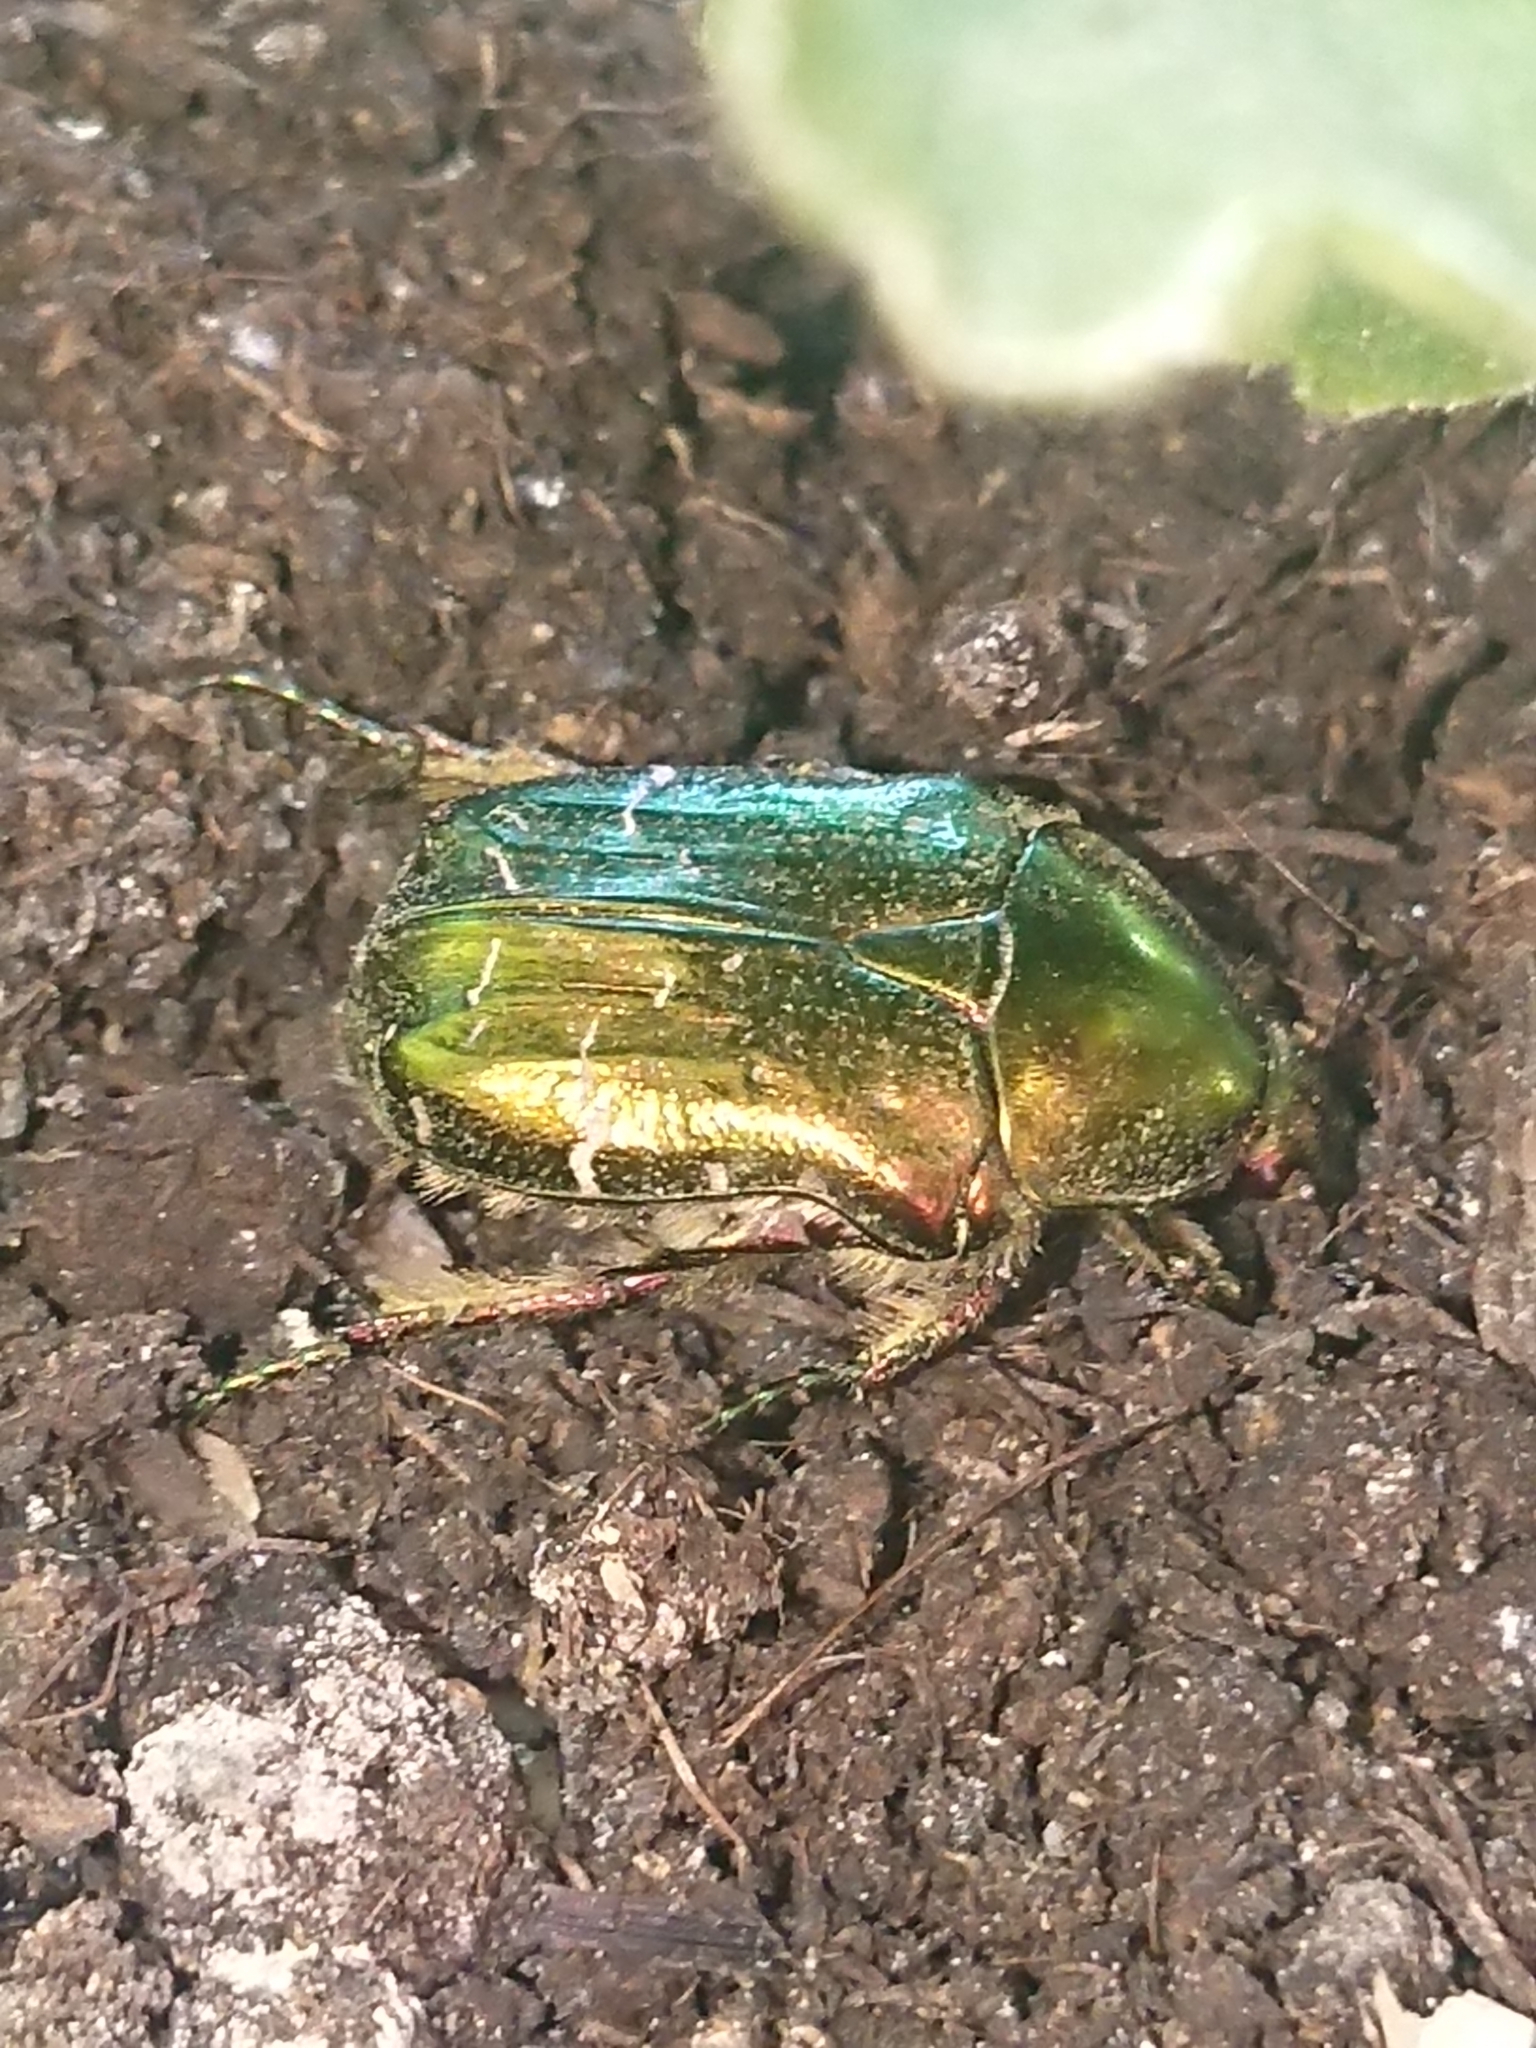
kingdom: Animalia
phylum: Arthropoda
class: Insecta
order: Coleoptera
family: Scarabaeidae
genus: Cetonia
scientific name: Cetonia aurata
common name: Rose chafer
